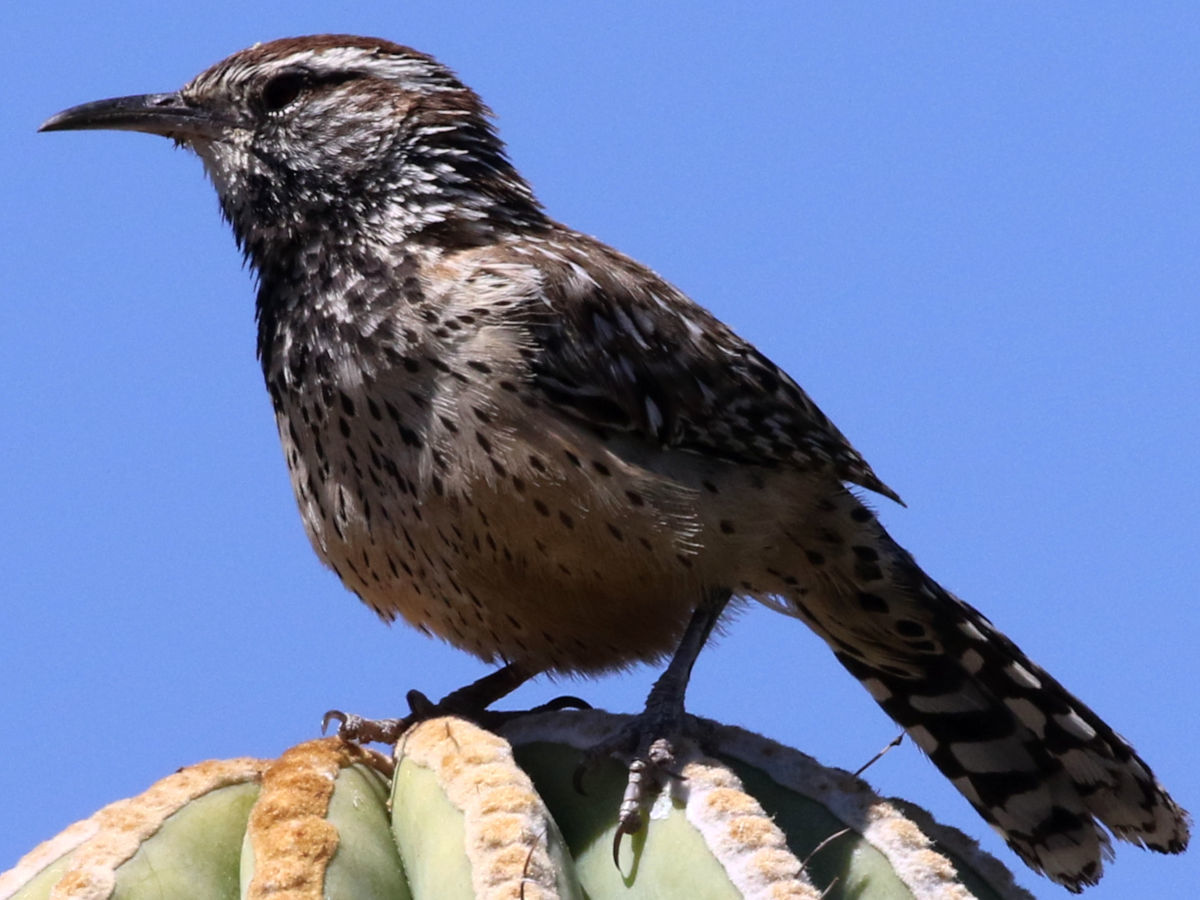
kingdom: Animalia
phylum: Chordata
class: Aves
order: Passeriformes
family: Troglodytidae
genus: Campylorhynchus
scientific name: Campylorhynchus brunneicapillus
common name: Cactus wren
